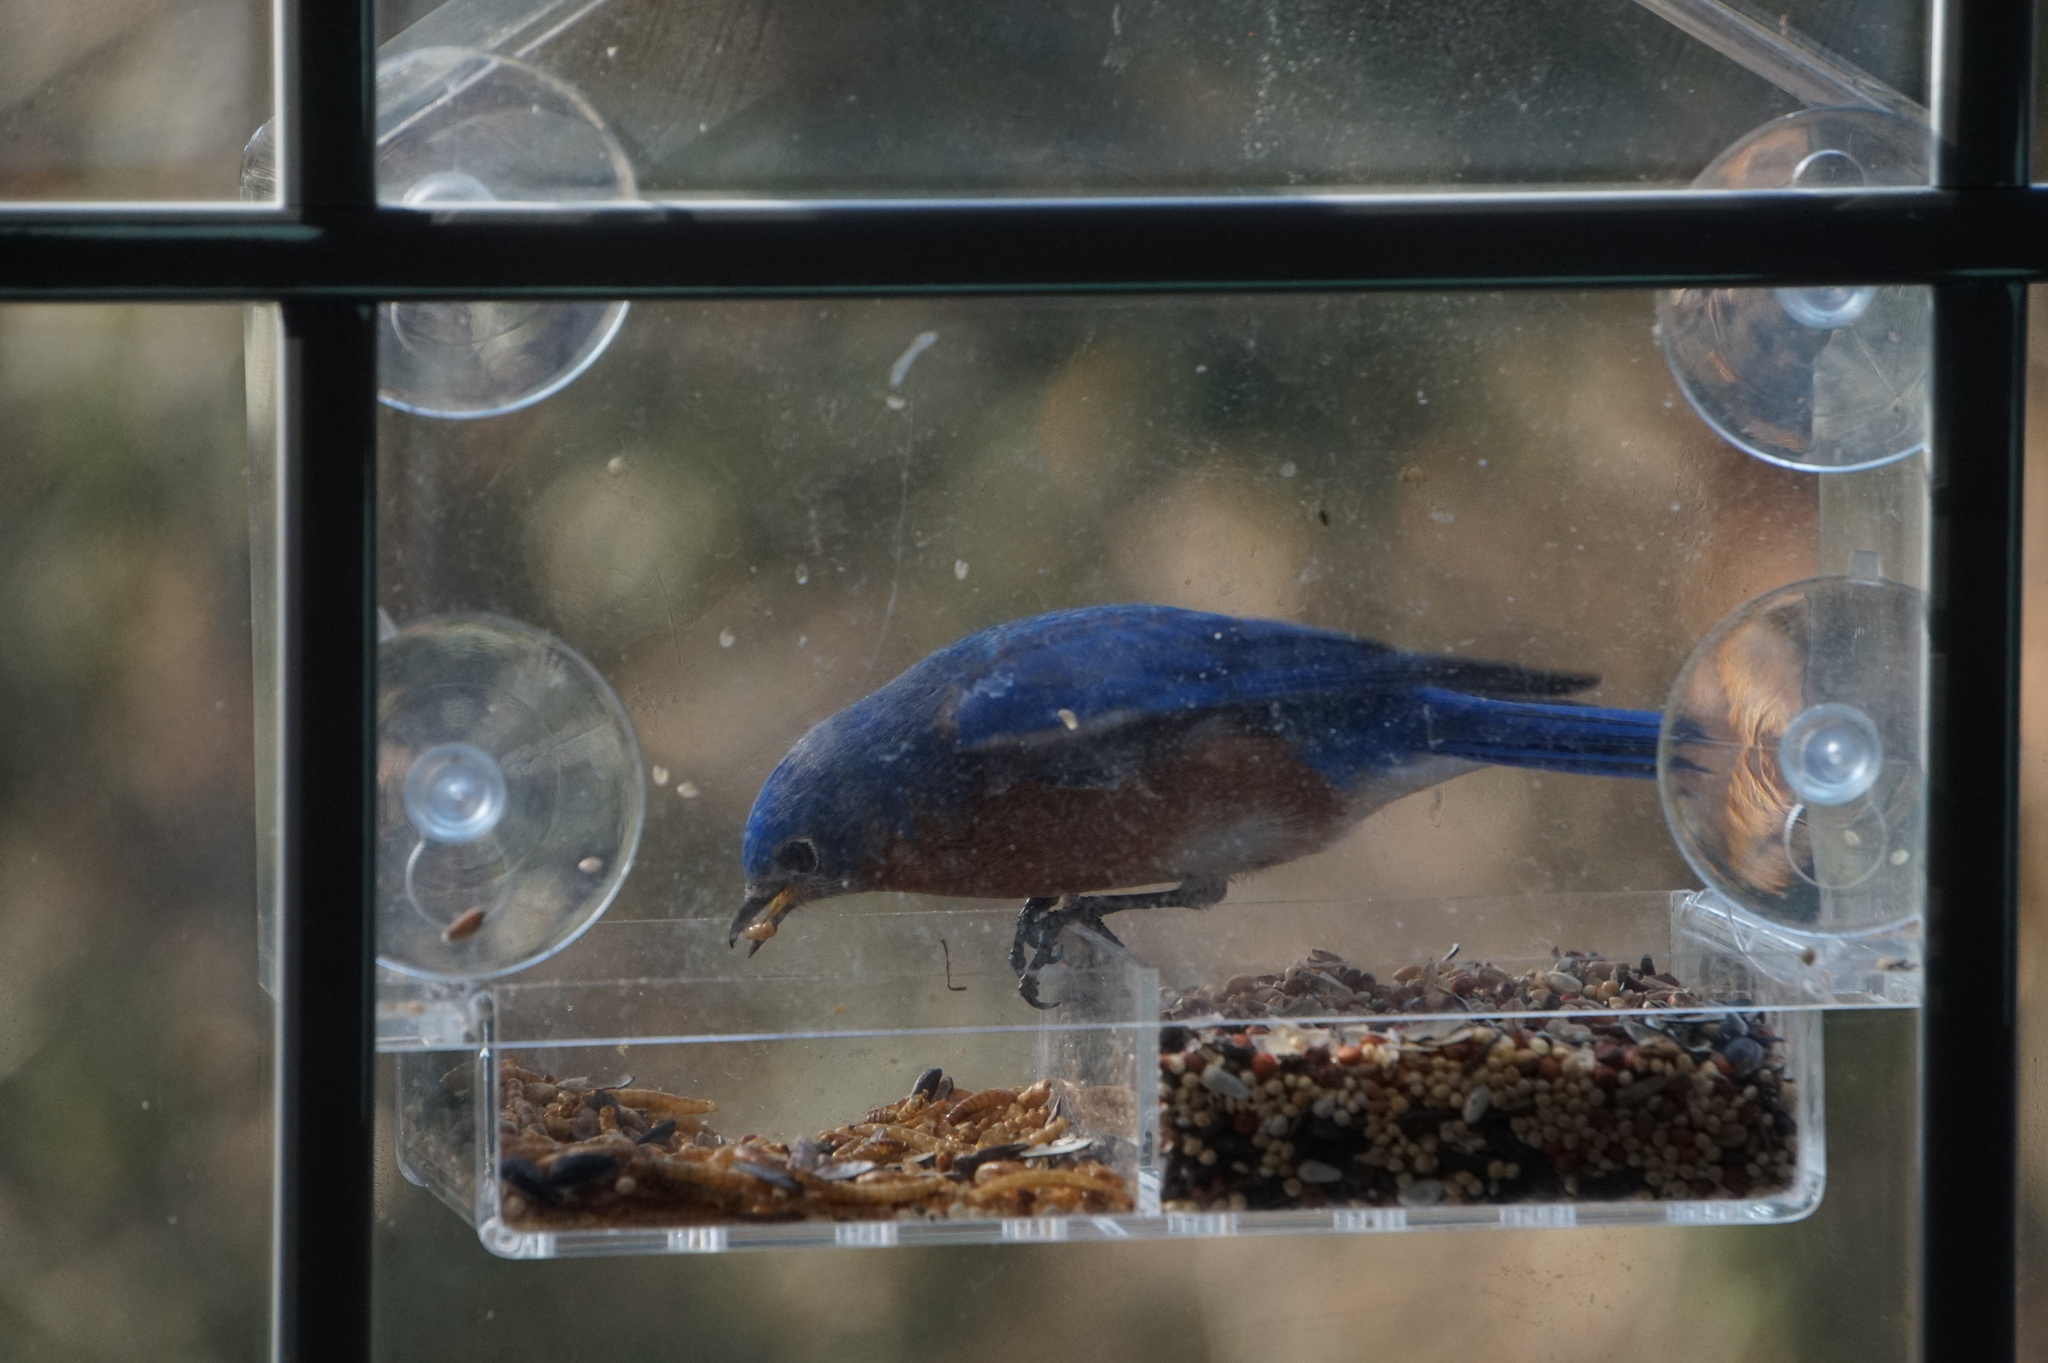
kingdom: Animalia
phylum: Chordata
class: Aves
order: Passeriformes
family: Turdidae
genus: Sialia
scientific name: Sialia sialis
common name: Eastern bluebird
